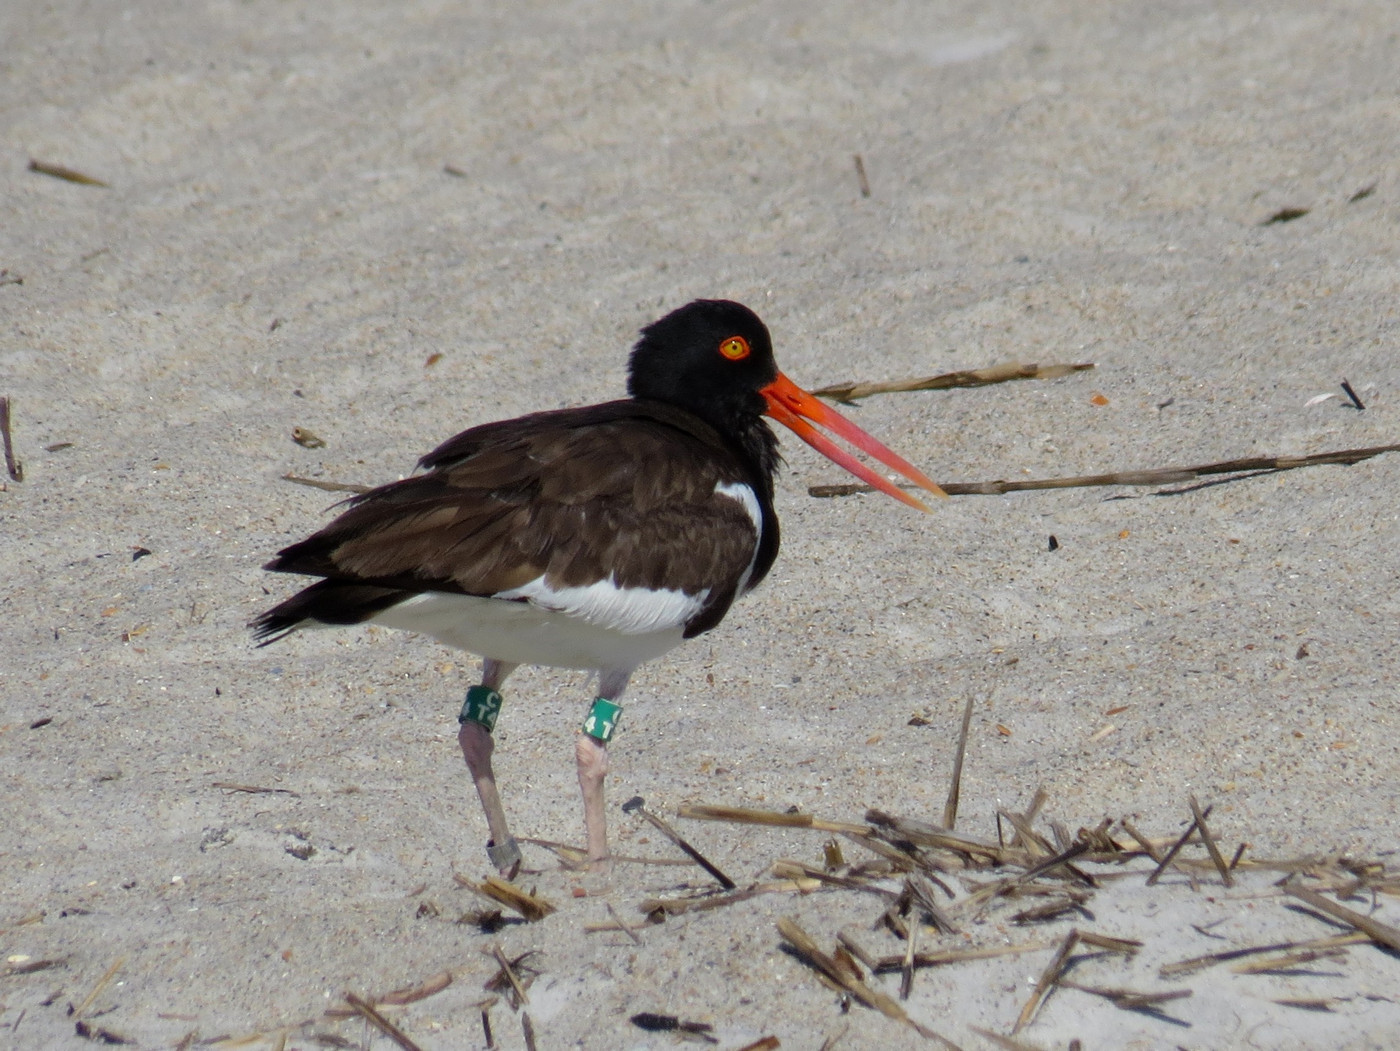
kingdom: Animalia
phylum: Chordata
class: Aves
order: Charadriiformes
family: Haematopodidae
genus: Haematopus
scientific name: Haematopus palliatus
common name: American oystercatcher
